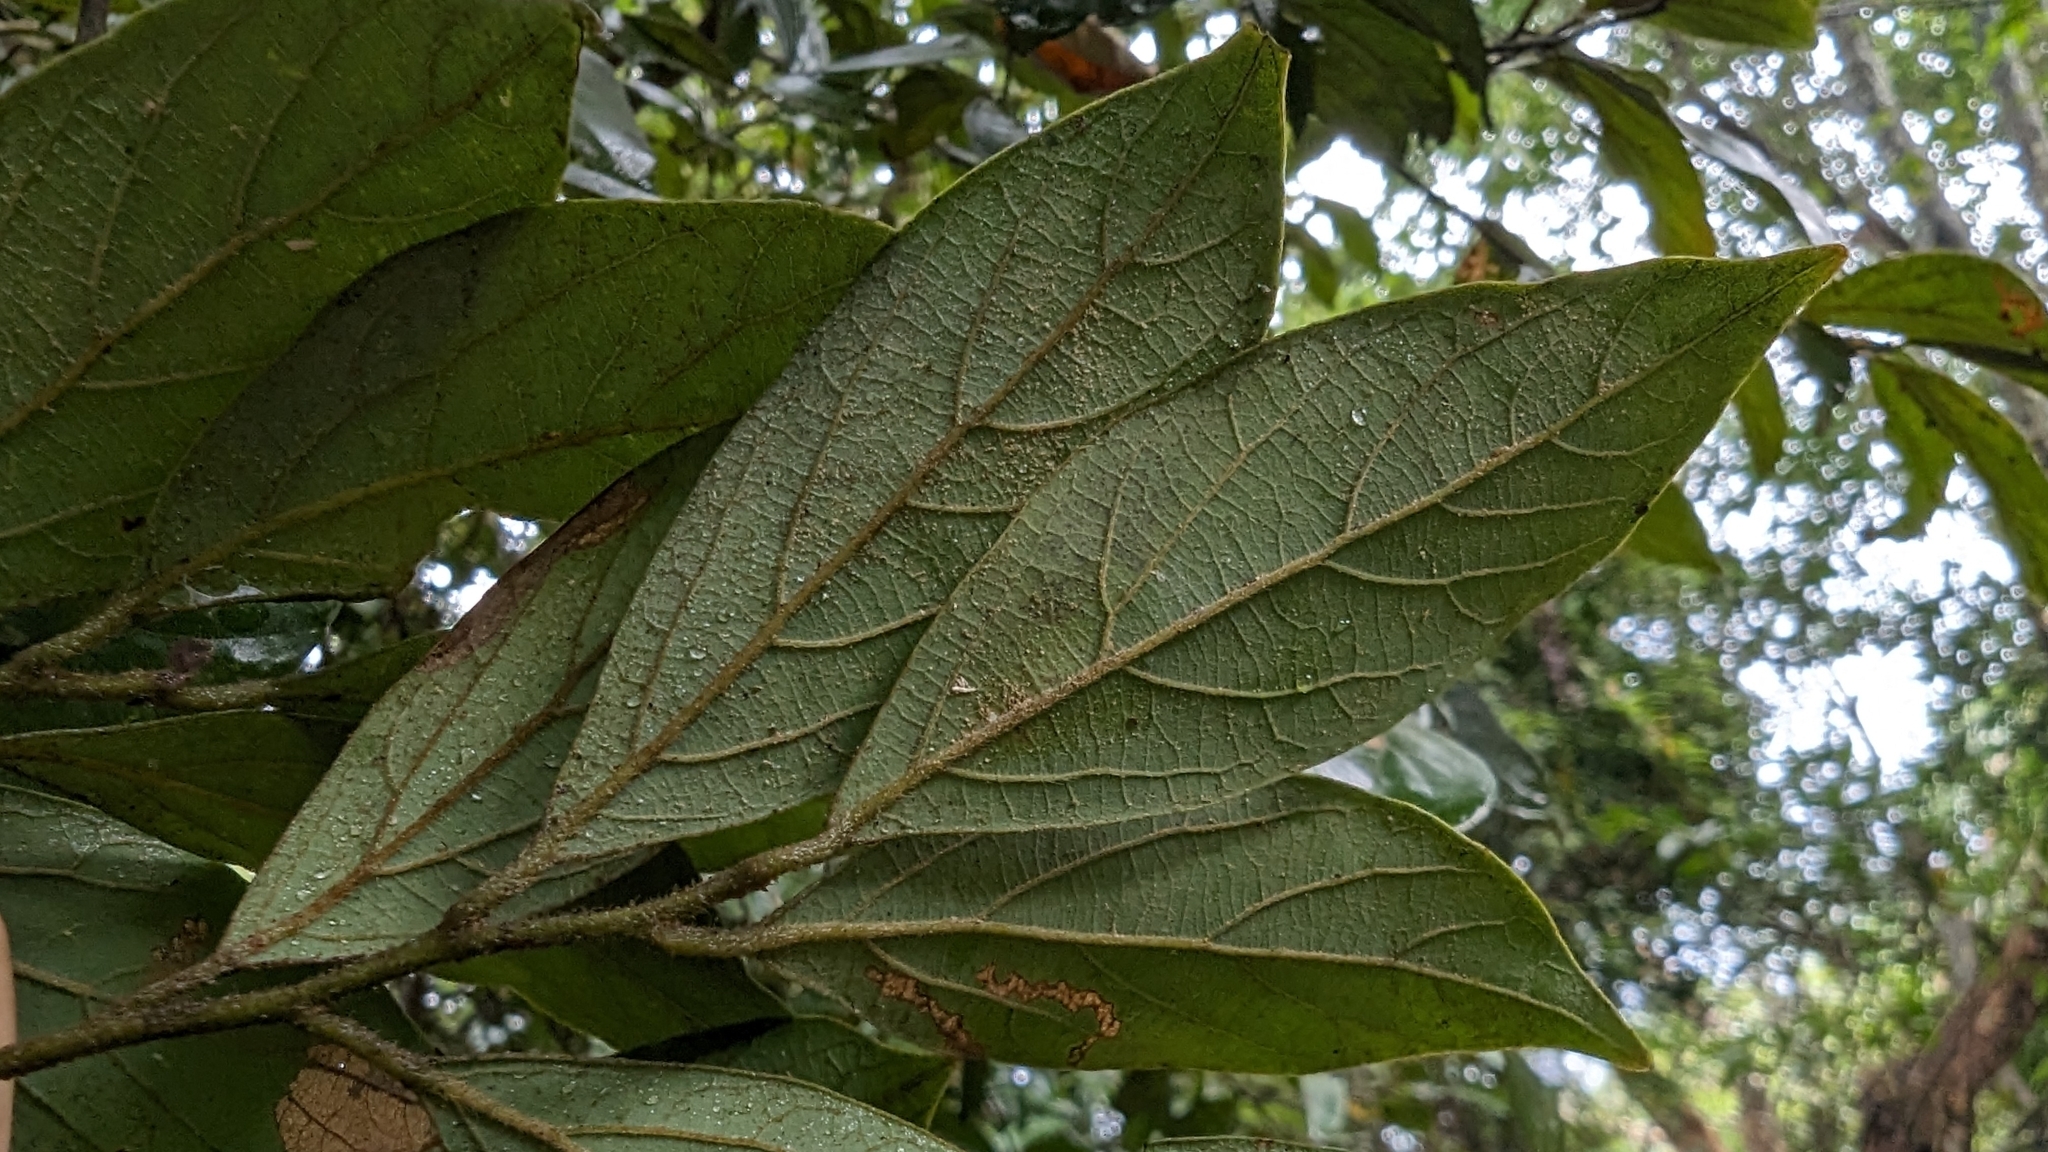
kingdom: Plantae
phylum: Tracheophyta
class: Magnoliopsida
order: Laurales
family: Lauraceae
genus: Lindera
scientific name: Lindera communis
